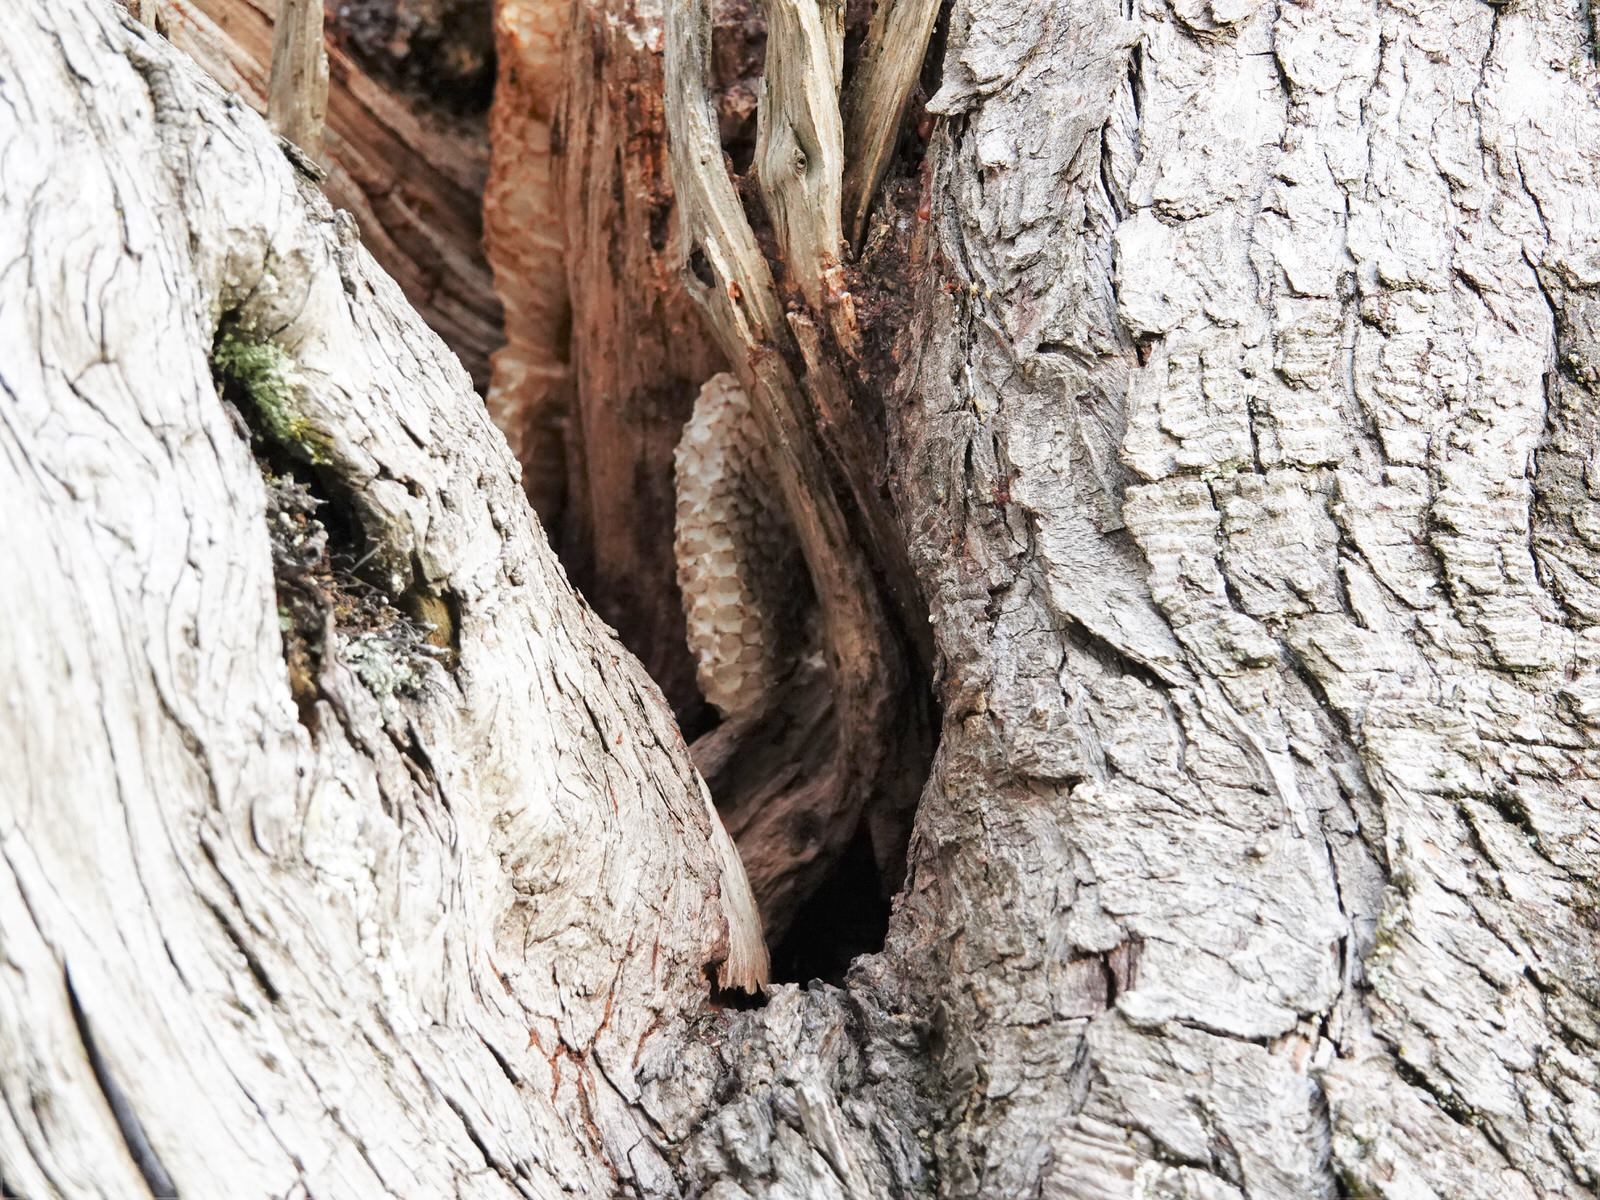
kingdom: Animalia
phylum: Arthropoda
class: Insecta
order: Hymenoptera
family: Apidae
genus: Apis
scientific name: Apis mellifera
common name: Honey bee
